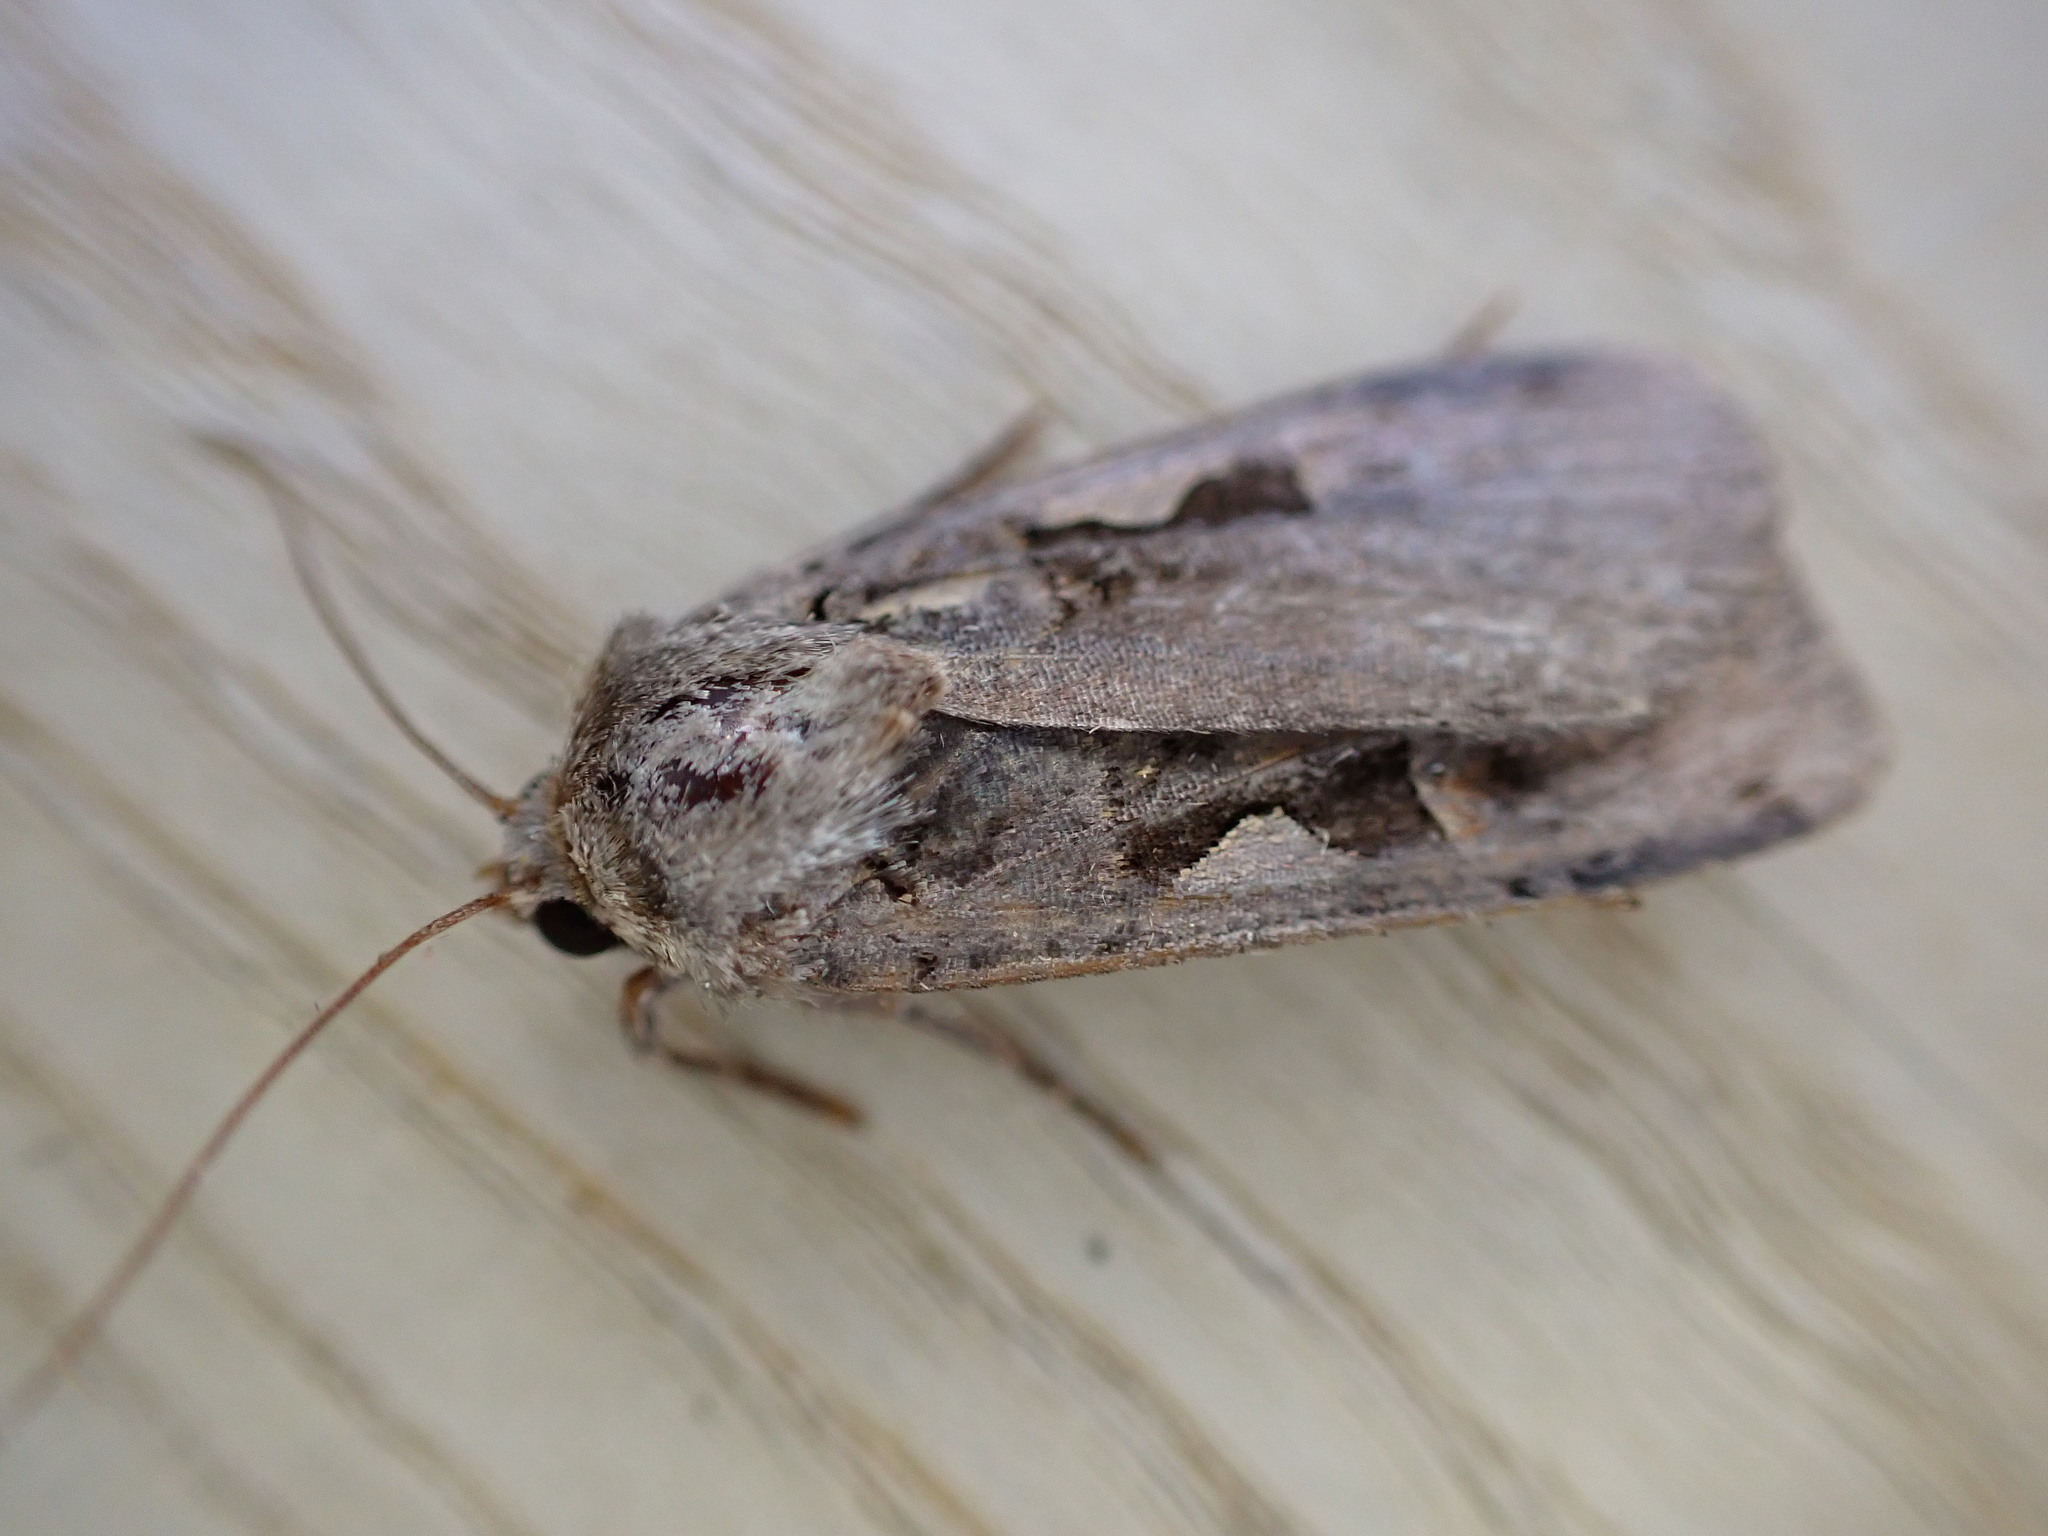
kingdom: Animalia
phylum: Arthropoda
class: Insecta
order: Lepidoptera
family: Noctuidae
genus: Xestia
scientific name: Xestia c-nigrum
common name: Setaceous hebrew character
